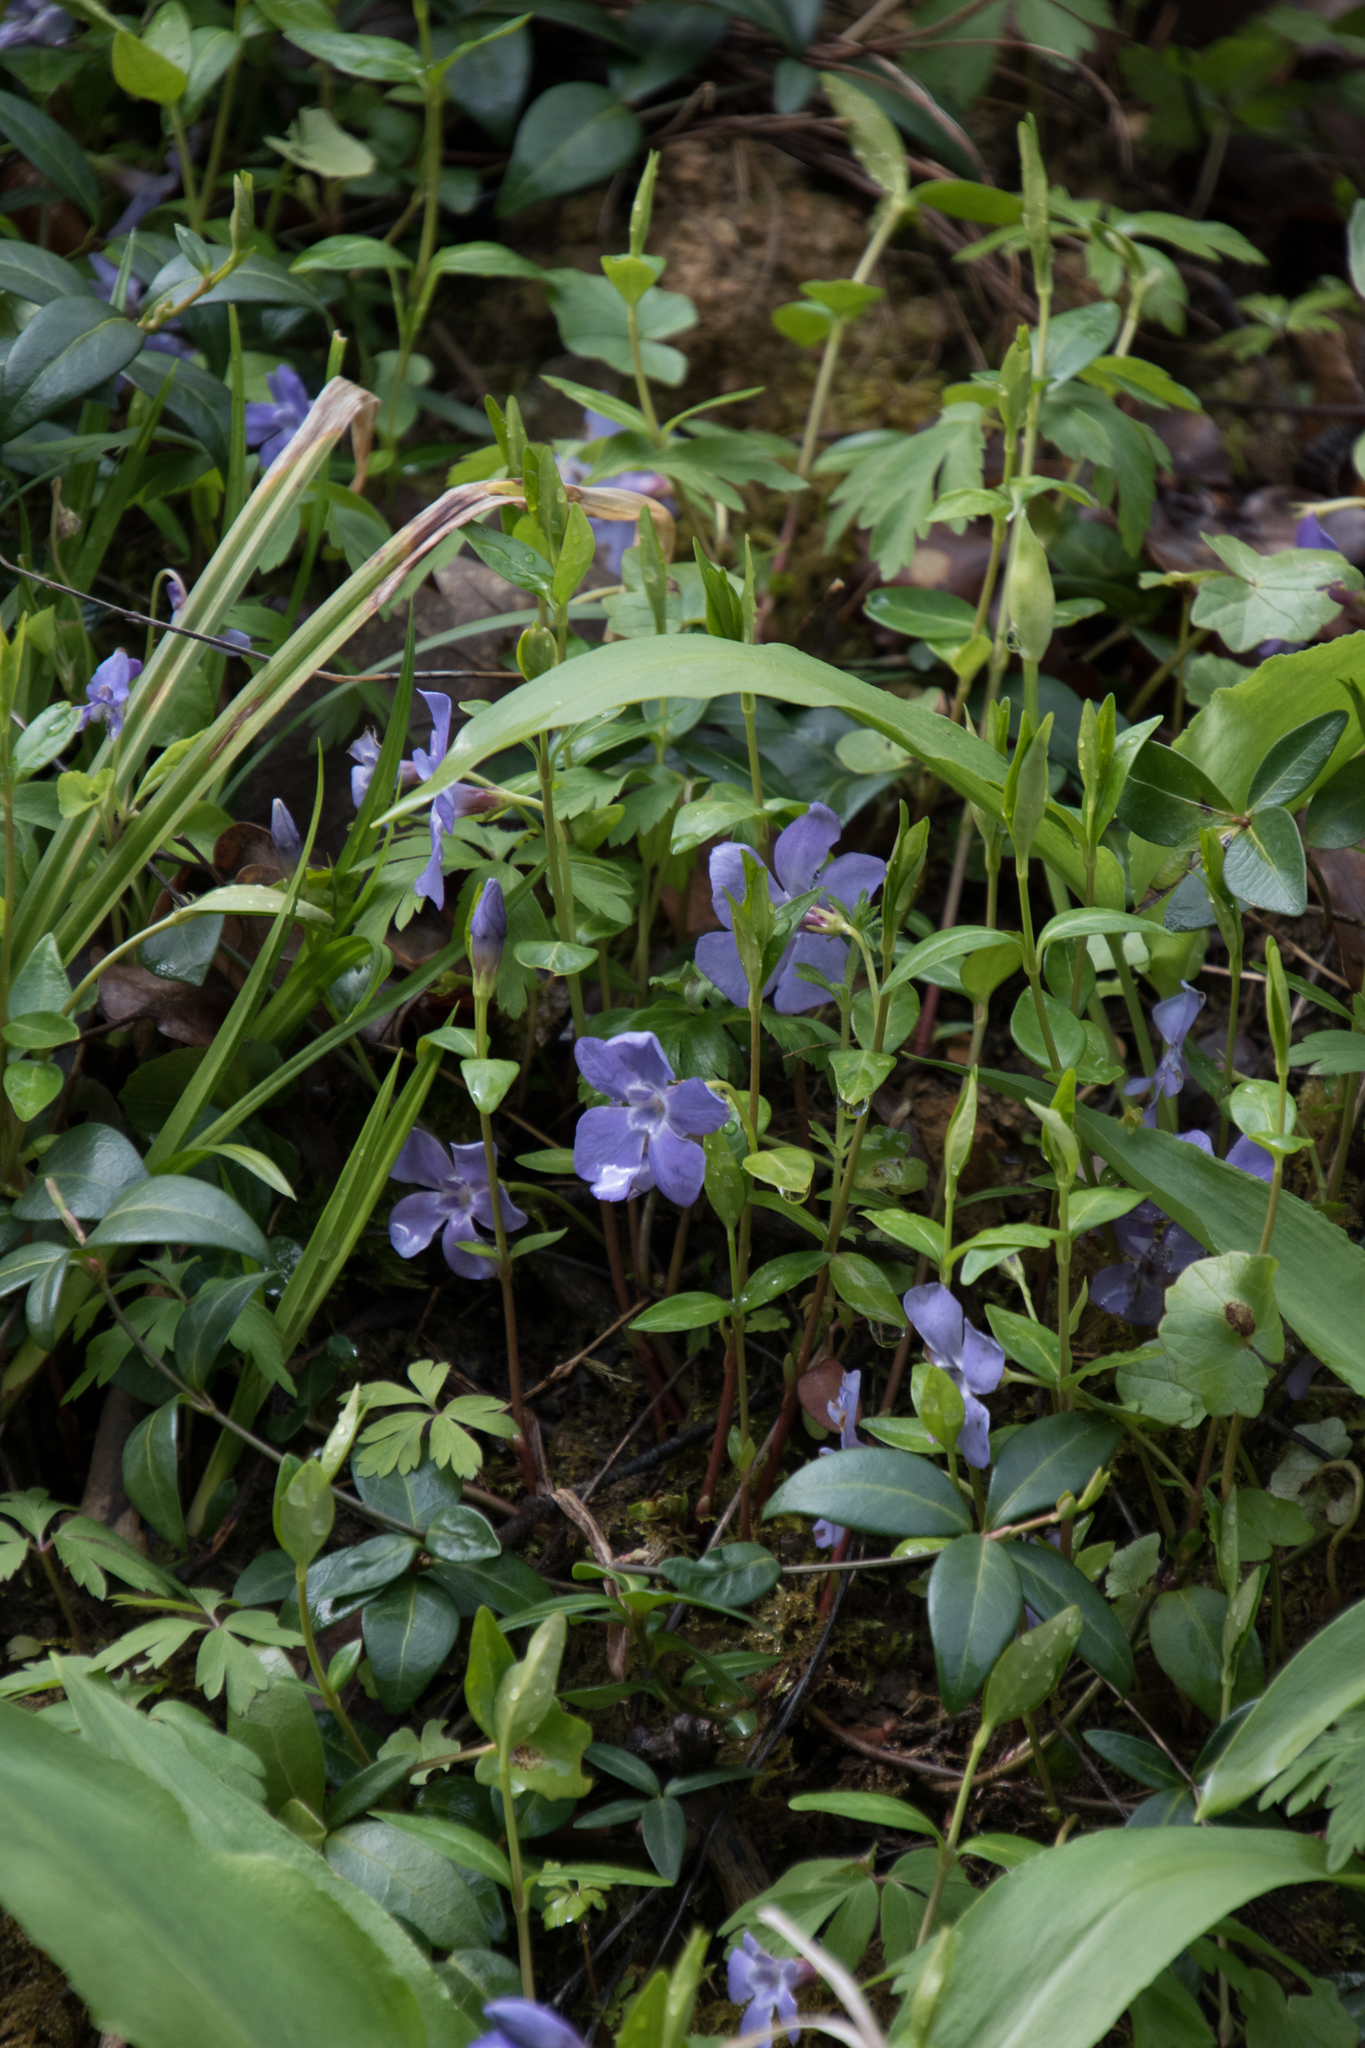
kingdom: Plantae
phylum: Tracheophyta
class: Magnoliopsida
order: Gentianales
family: Apocynaceae
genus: Vinca
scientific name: Vinca minor
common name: Lesser periwinkle
